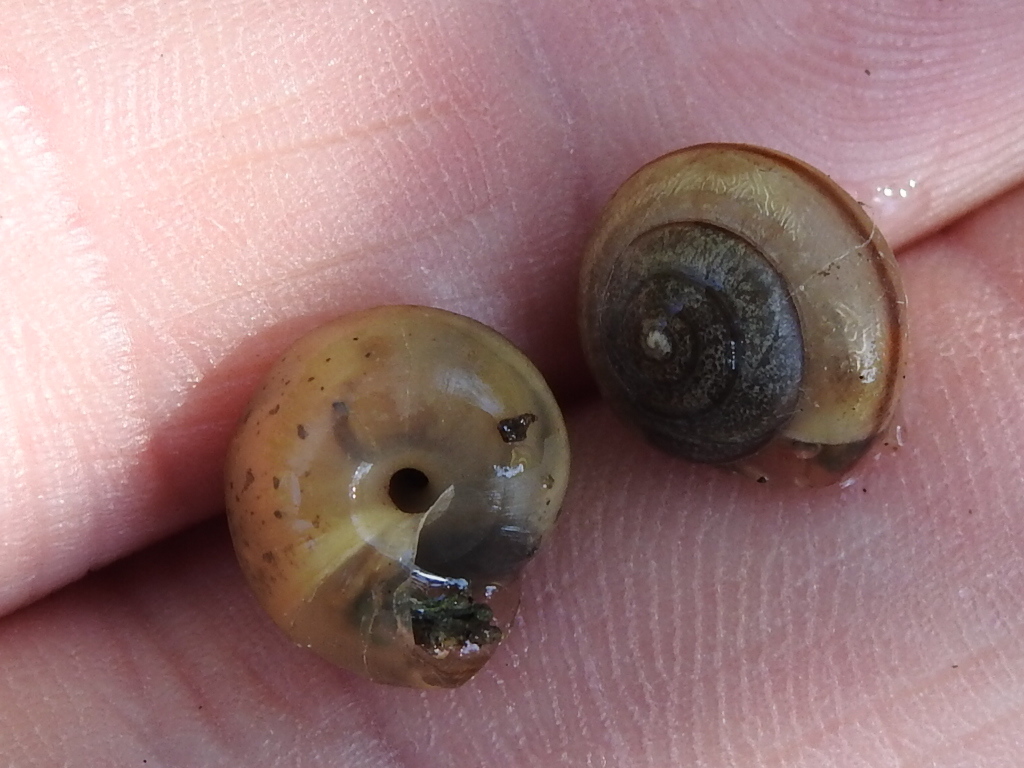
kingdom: Animalia
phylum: Mollusca
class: Gastropoda
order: Stylommatophora
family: Camaenidae
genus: Bradybaena
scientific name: Bradybaena similaris
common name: Asian trampsnail
